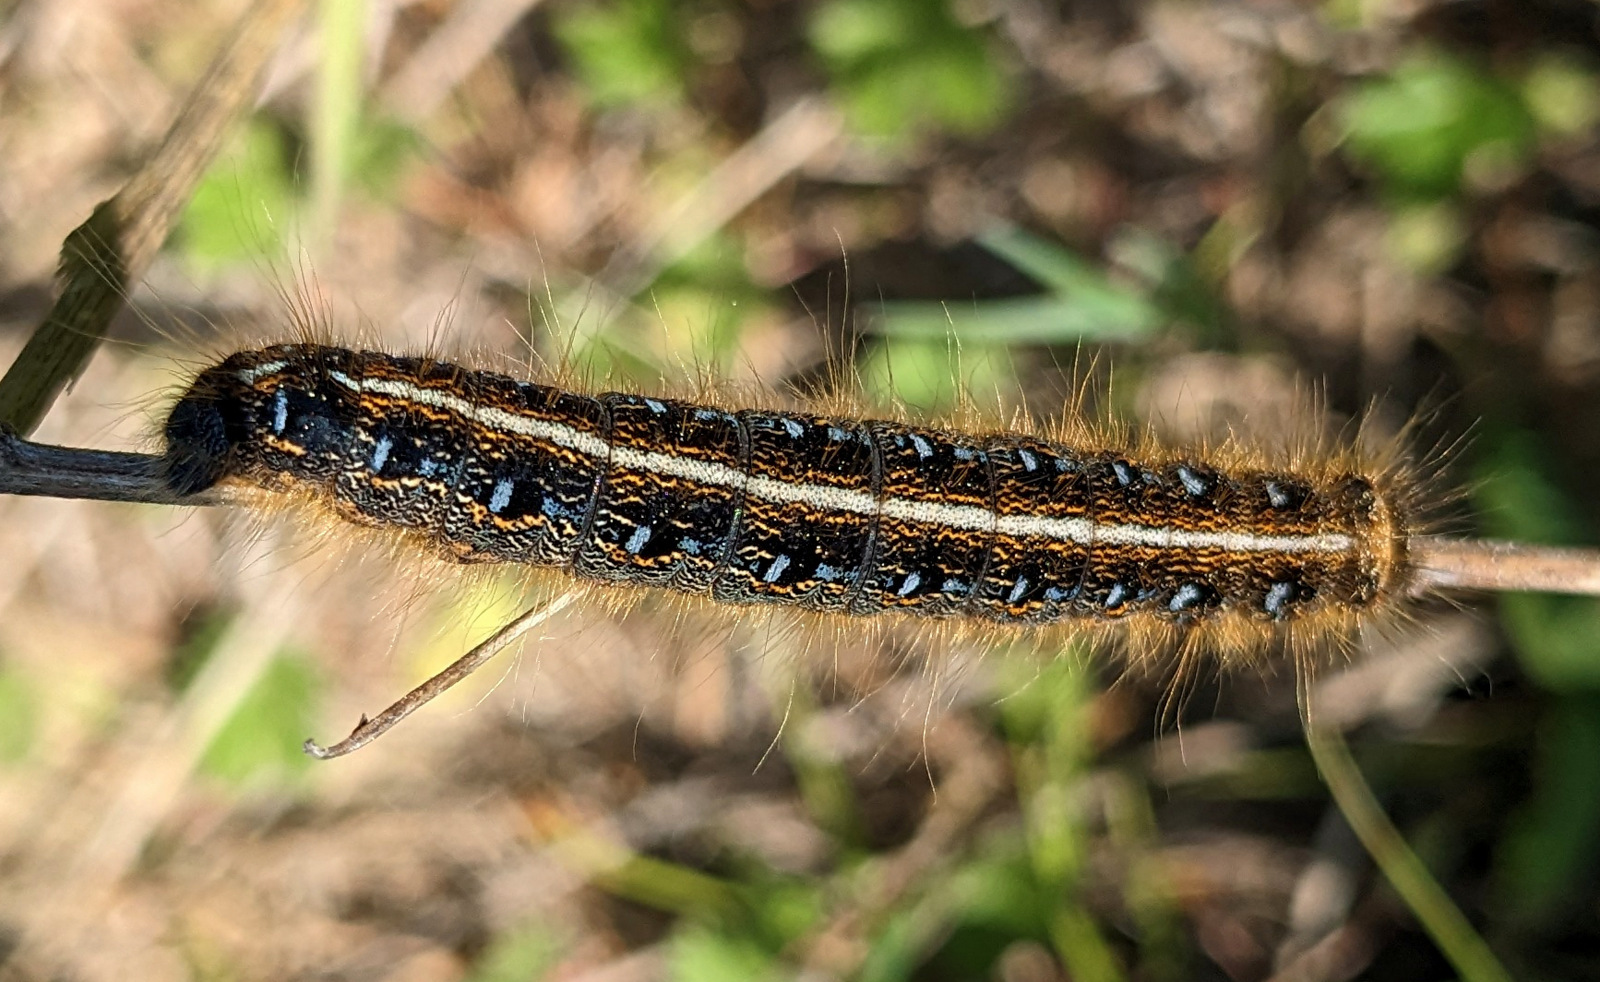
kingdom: Animalia
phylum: Arthropoda
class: Insecta
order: Lepidoptera
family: Lasiocampidae
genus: Malacosoma
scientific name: Malacosoma americana
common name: Eastern tent caterpillar moth
